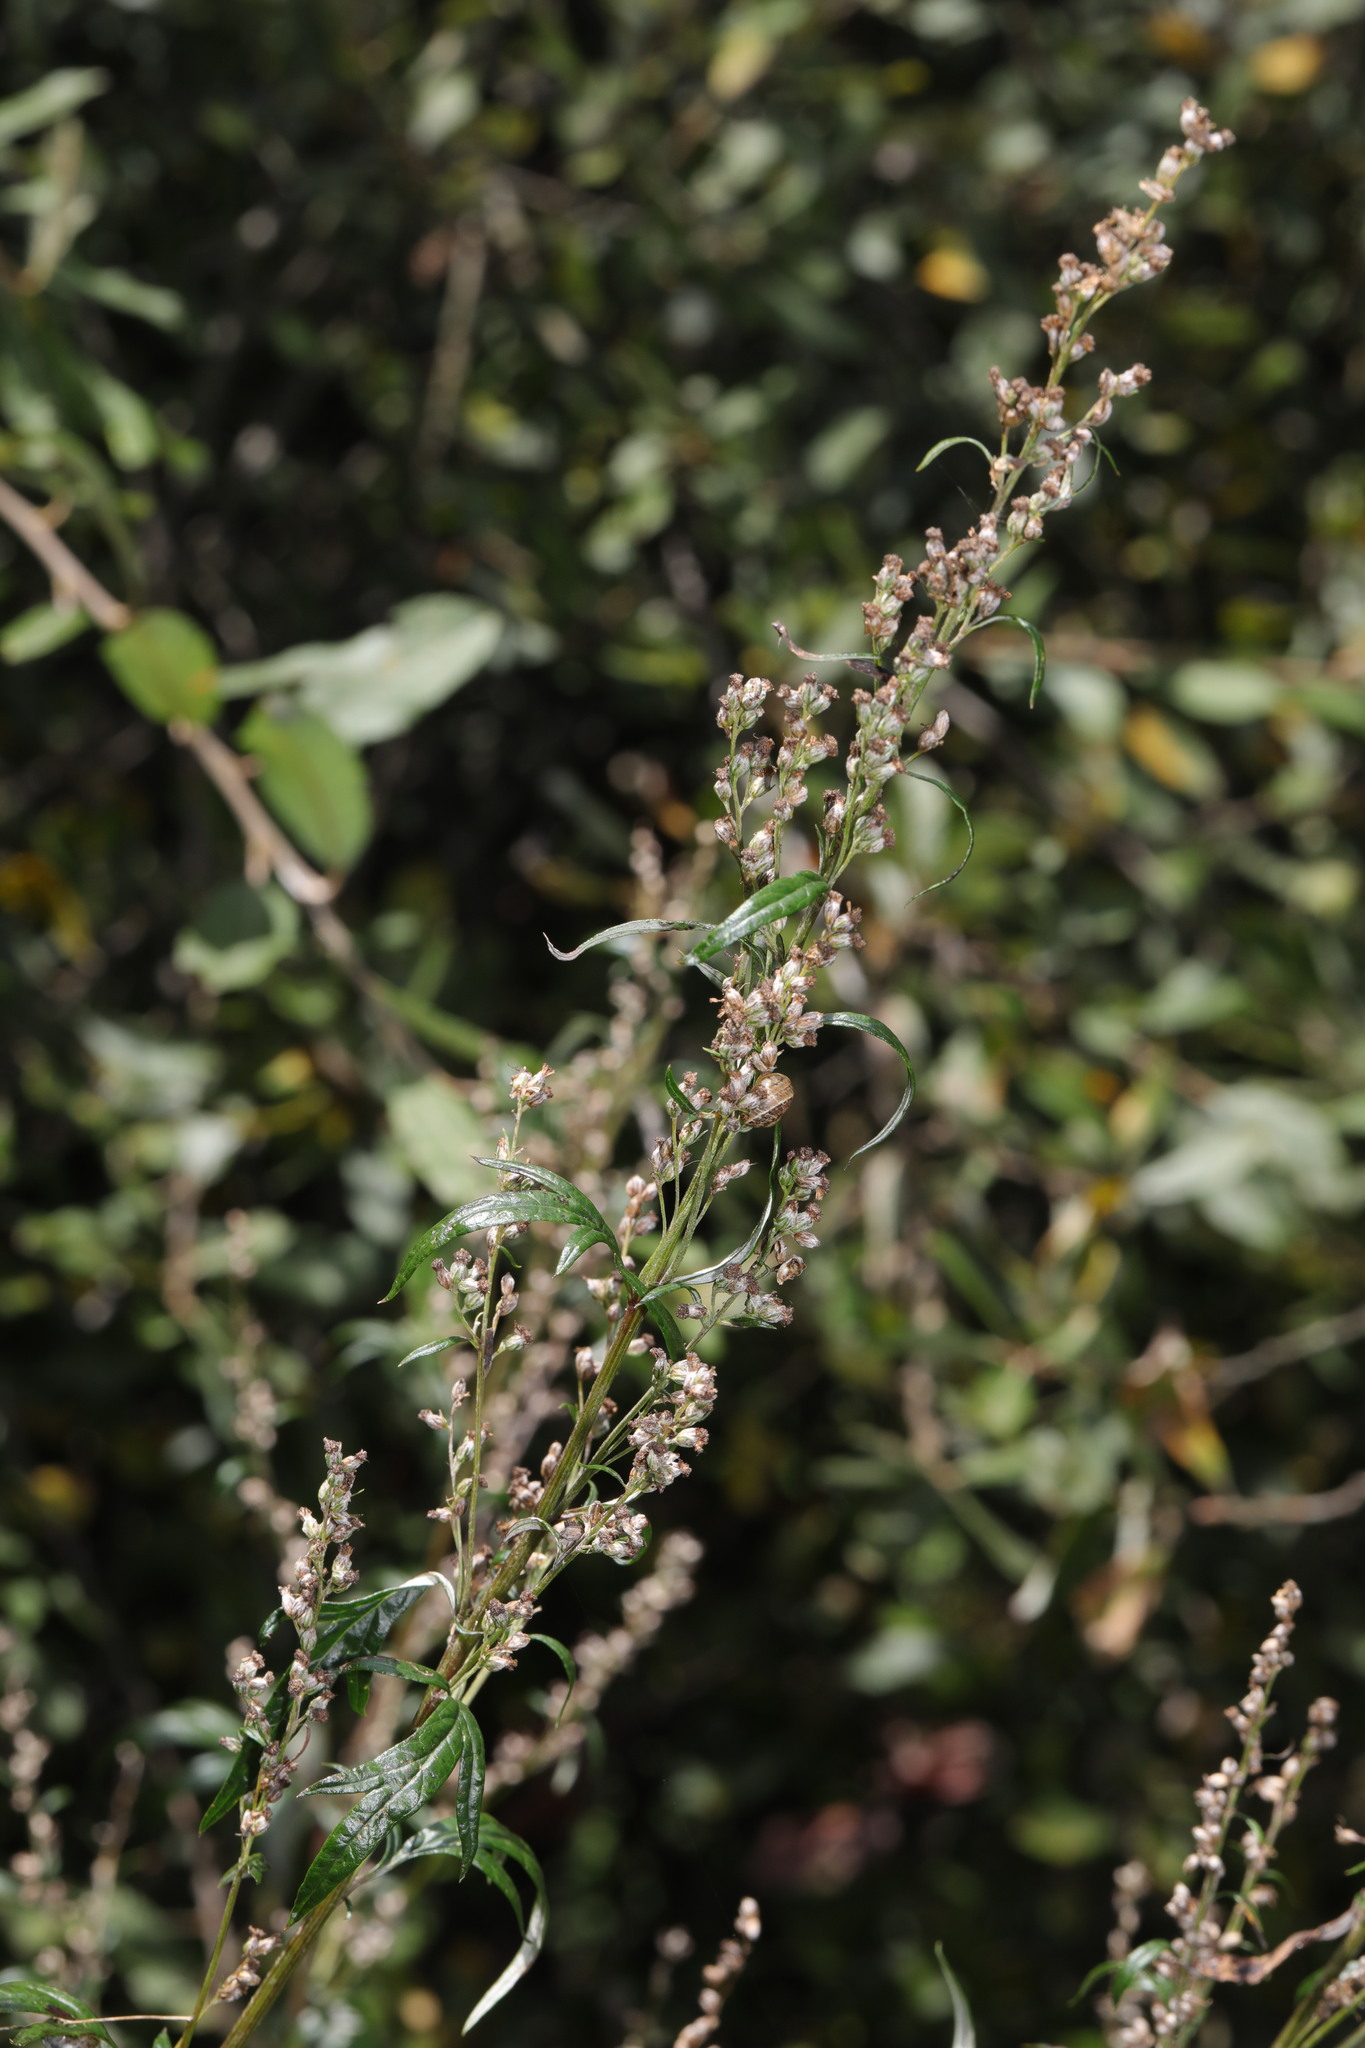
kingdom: Plantae
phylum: Tracheophyta
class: Magnoliopsida
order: Asterales
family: Asteraceae
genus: Artemisia
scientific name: Artemisia vulgaris
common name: Mugwort
